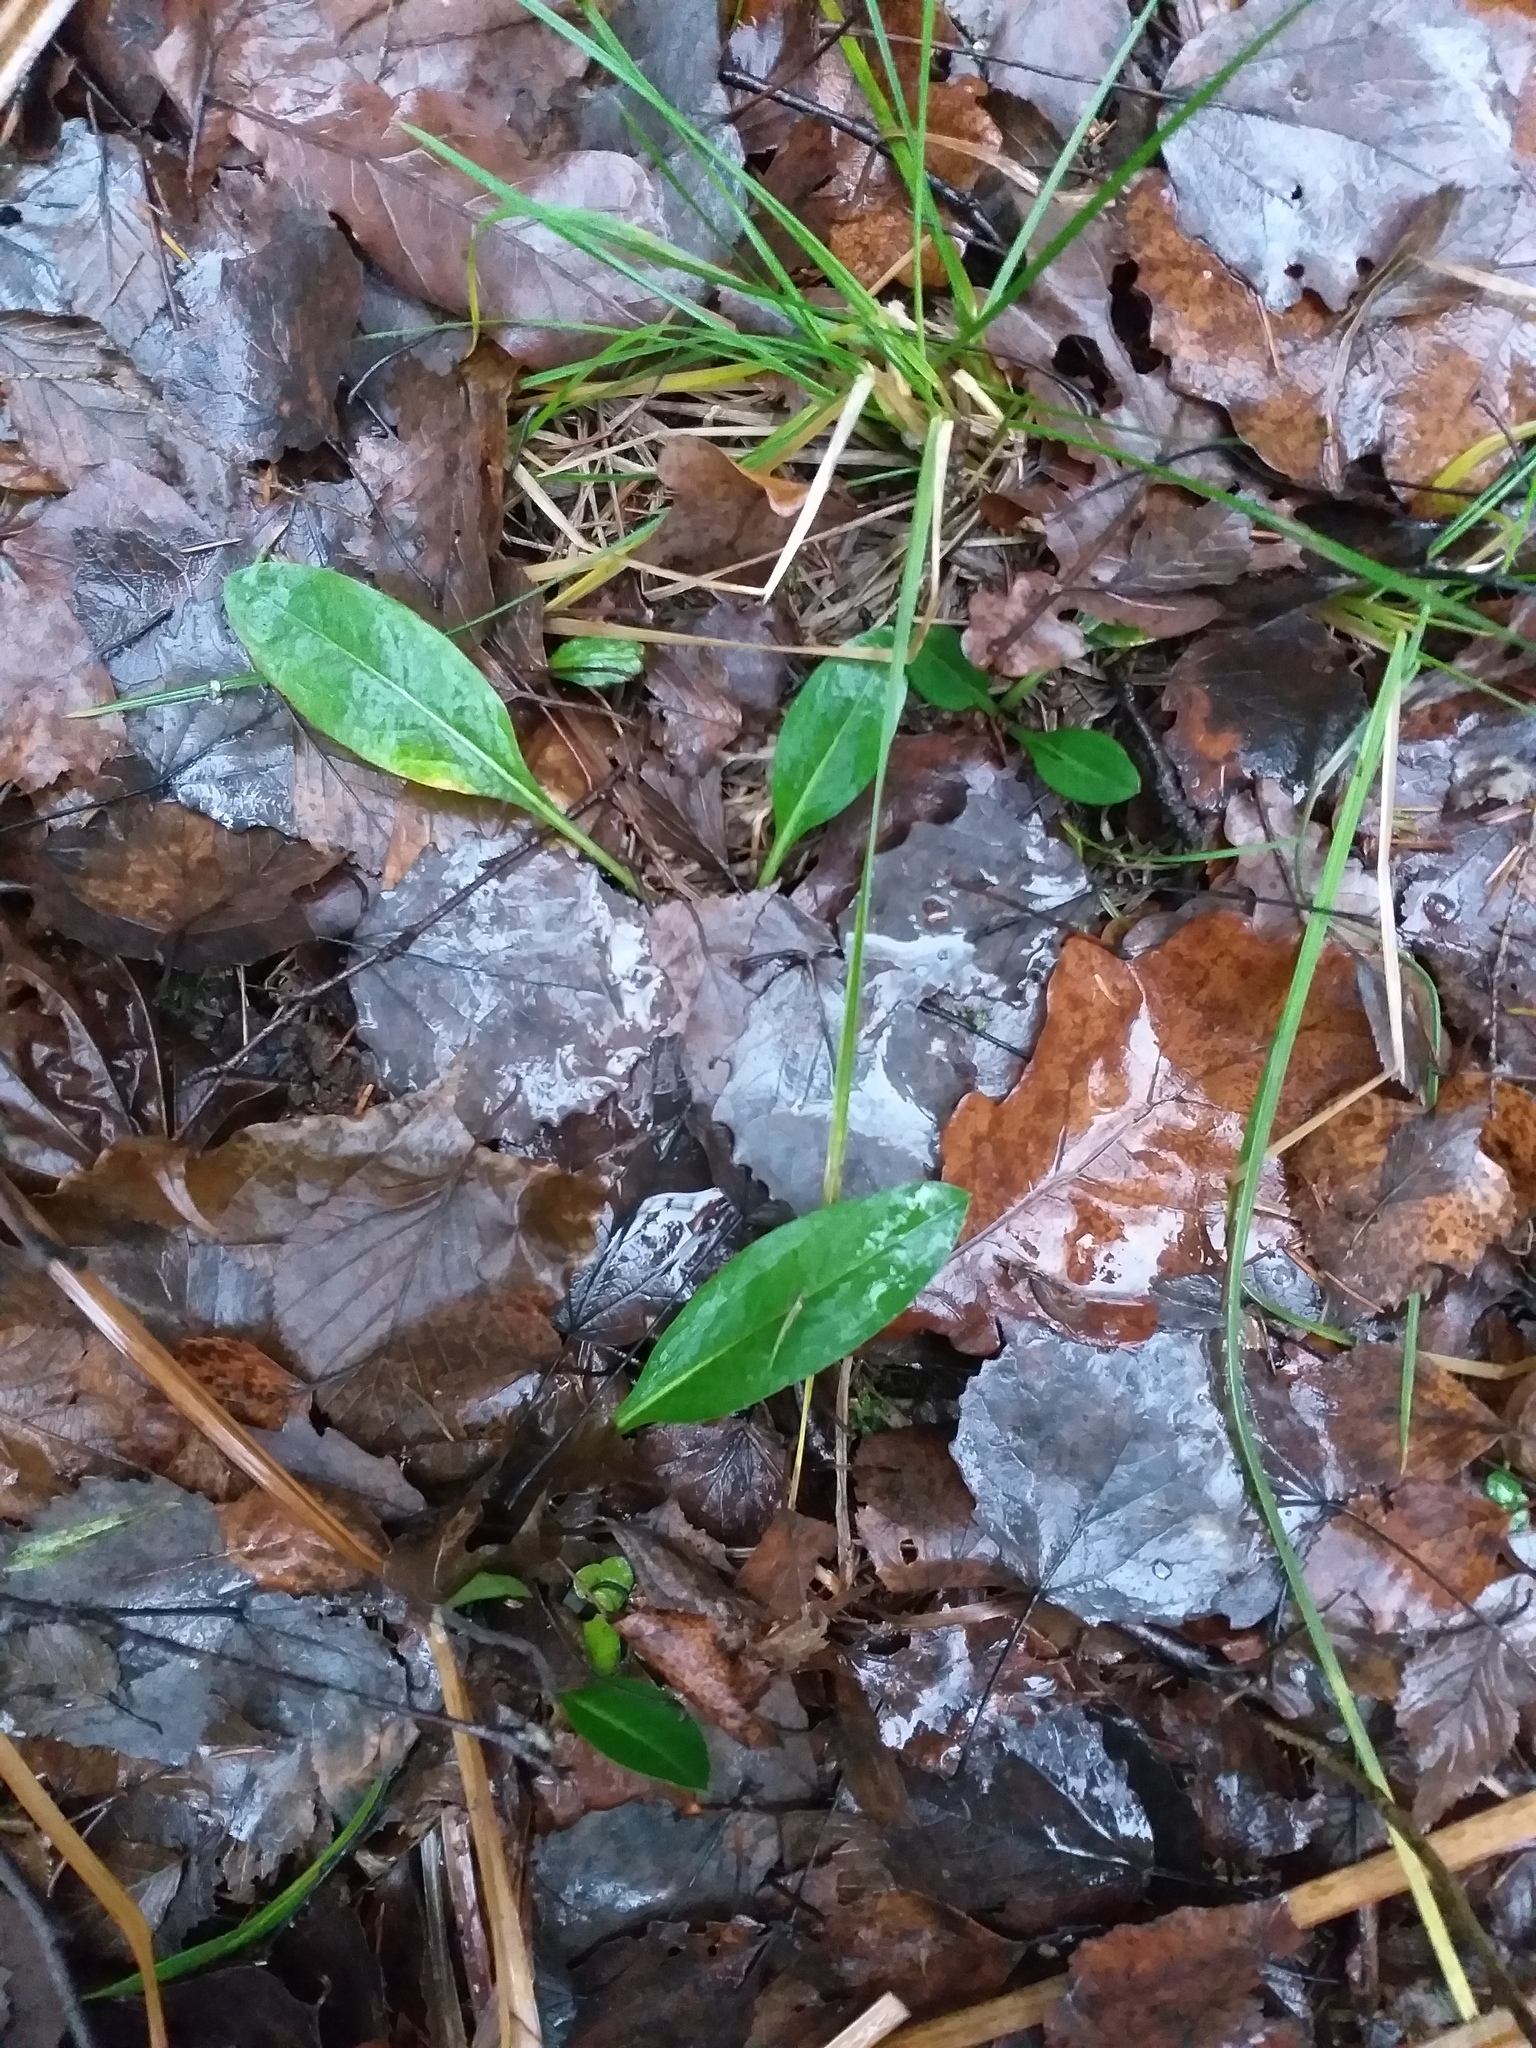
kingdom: Plantae
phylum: Tracheophyta
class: Magnoliopsida
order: Dipsacales
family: Caprifoliaceae
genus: Succisa
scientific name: Succisa pratensis
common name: Devil's-bit
